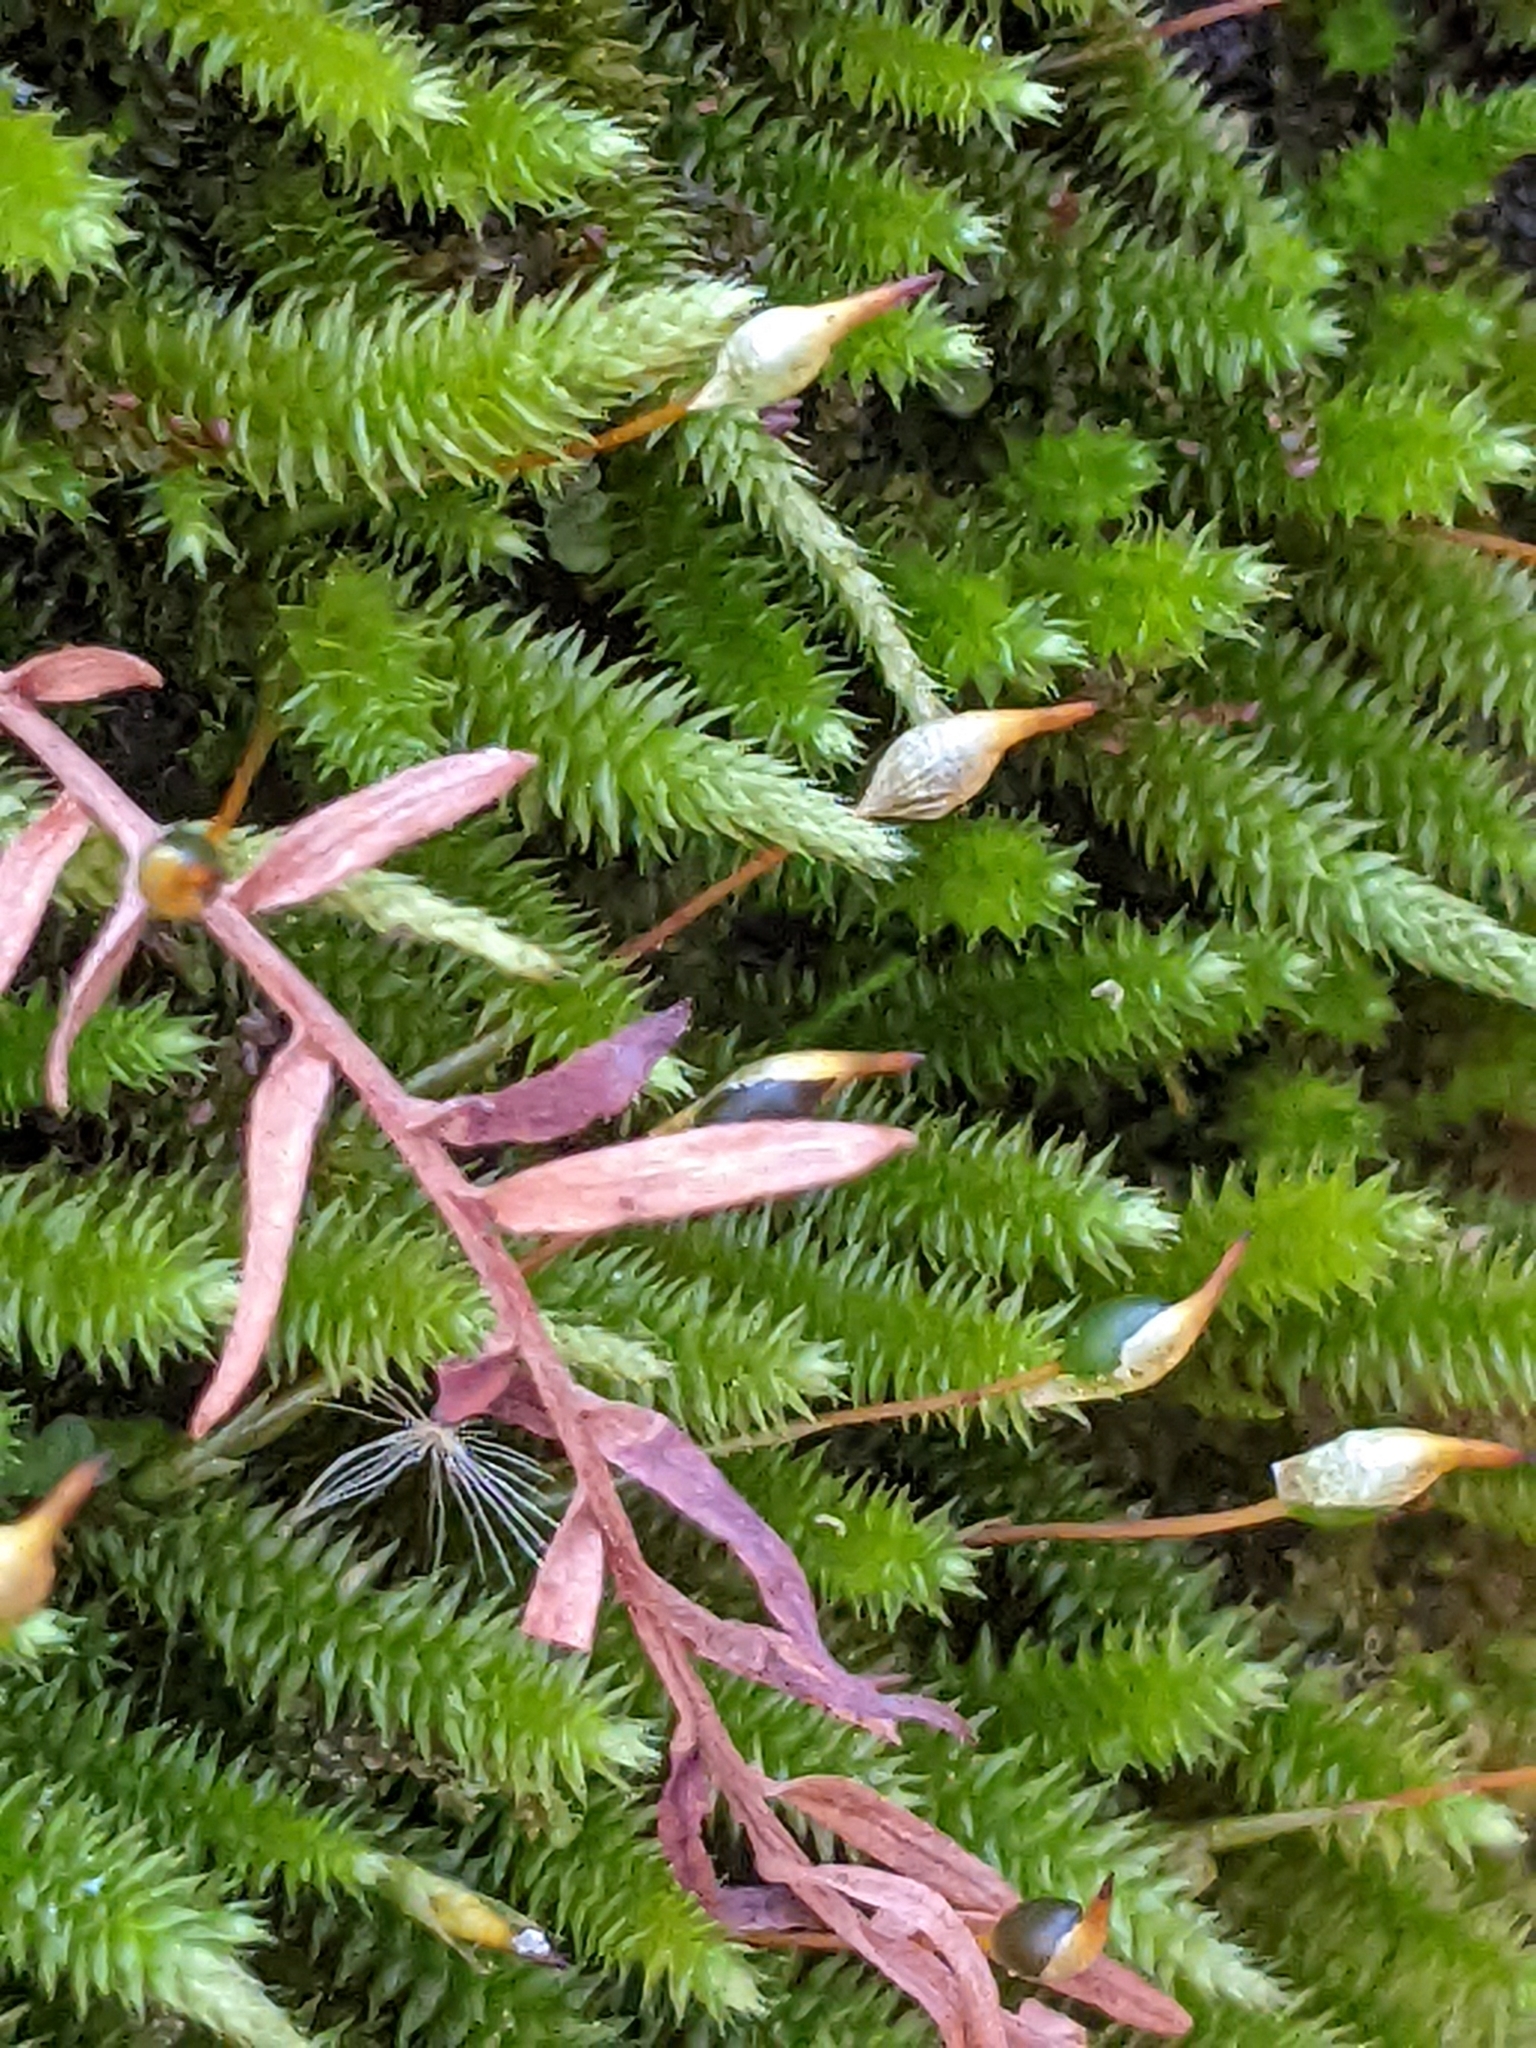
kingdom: Plantae
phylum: Bryophyta
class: Bryopsida
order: Hypnales
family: Leucodontaceae
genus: Leucodon
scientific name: Leucodon julaceus
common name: Smooth hook moss
